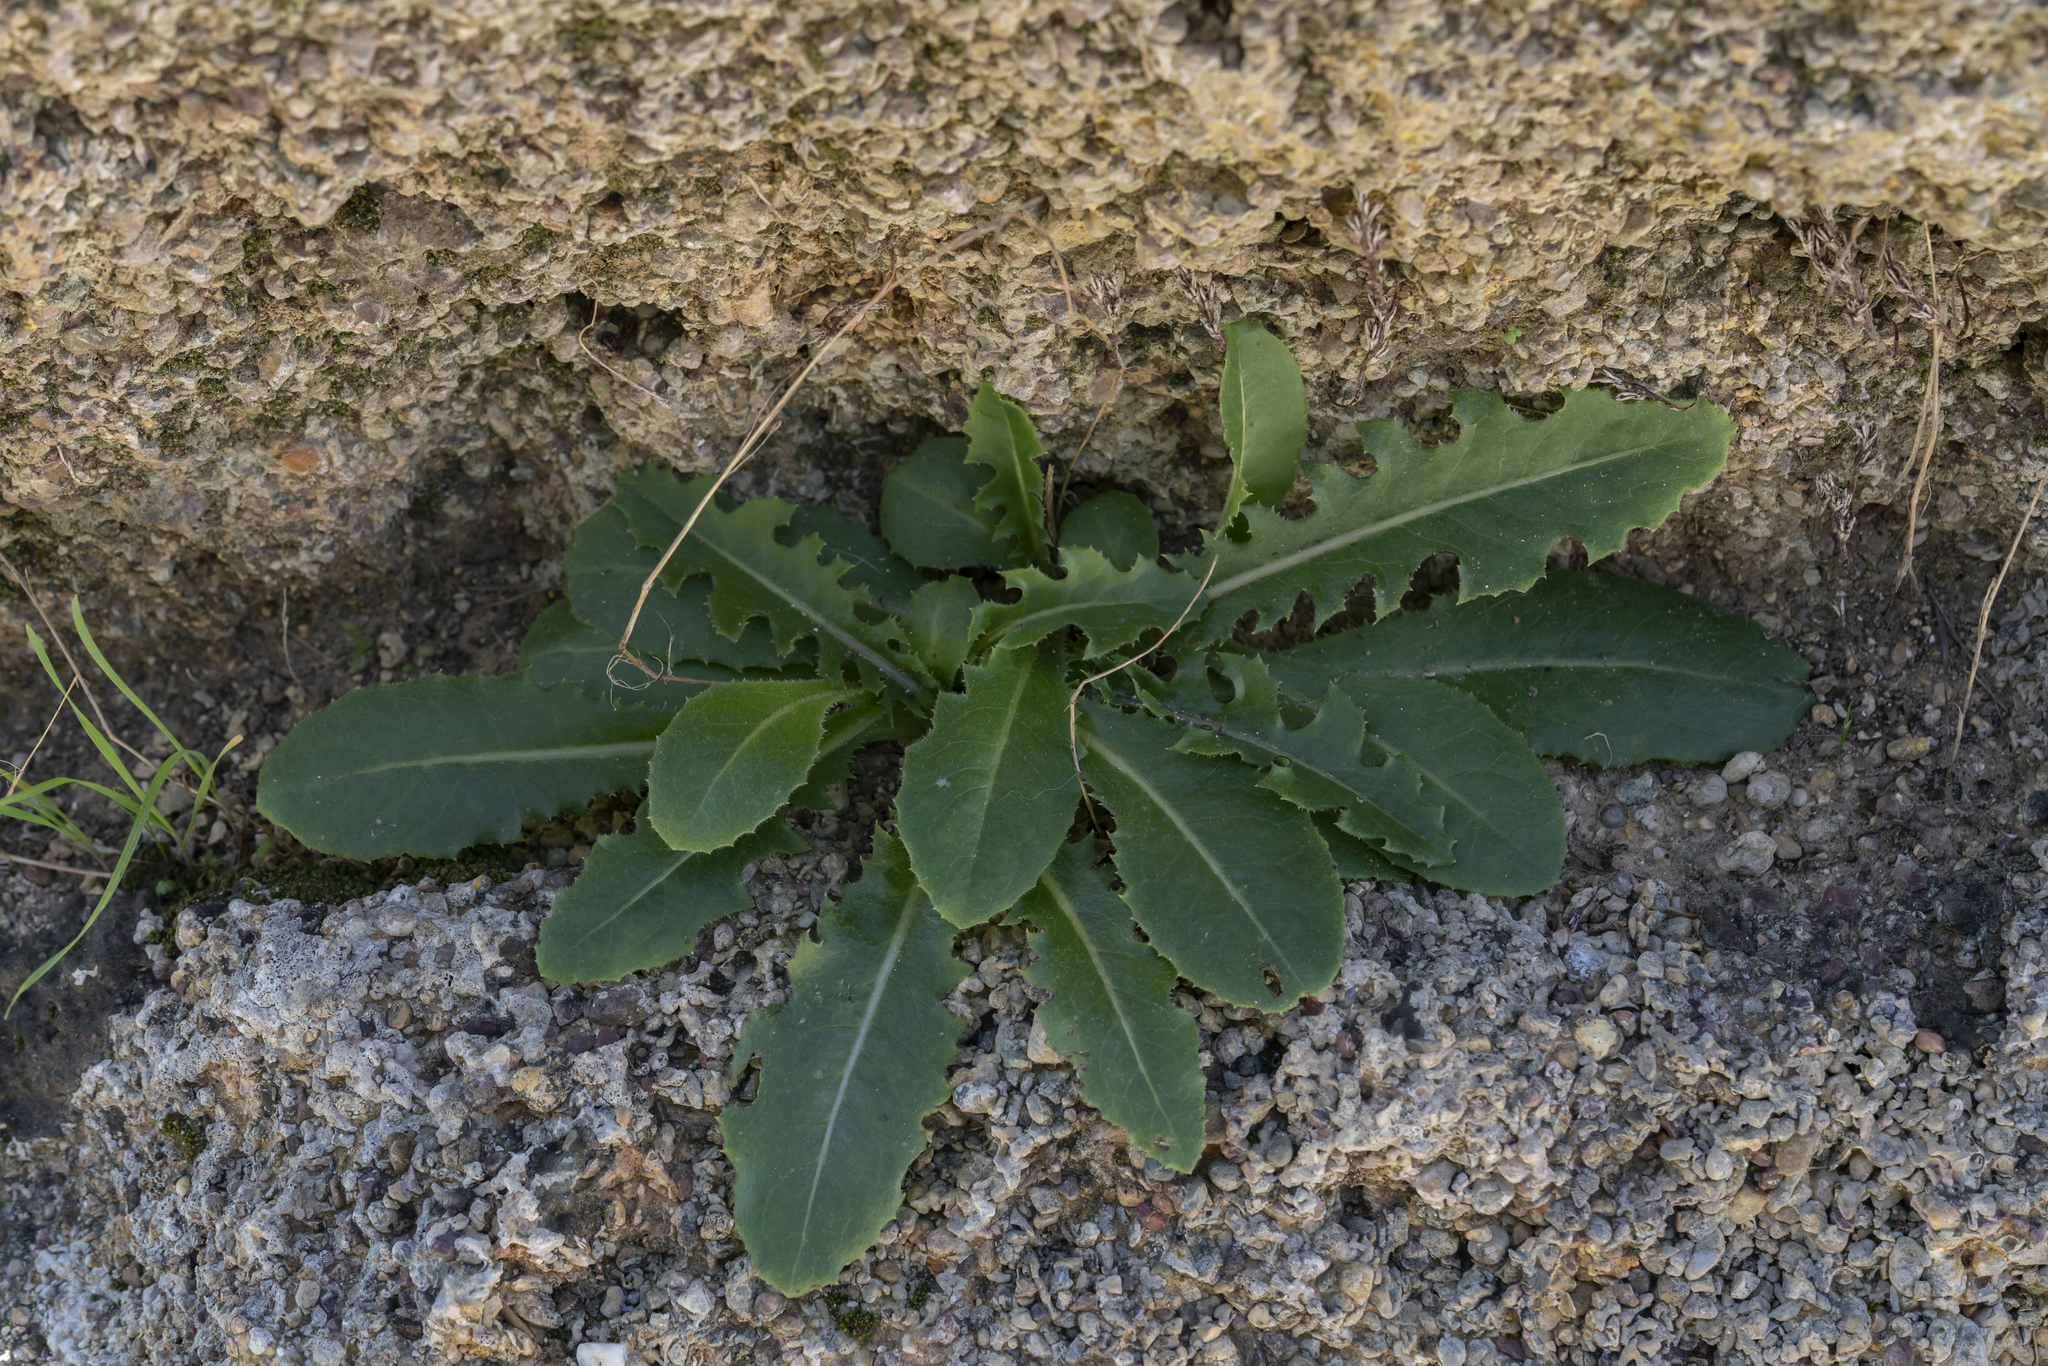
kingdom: Plantae
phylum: Tracheophyta
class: Magnoliopsida
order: Asterales
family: Asteraceae
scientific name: Asteraceae
